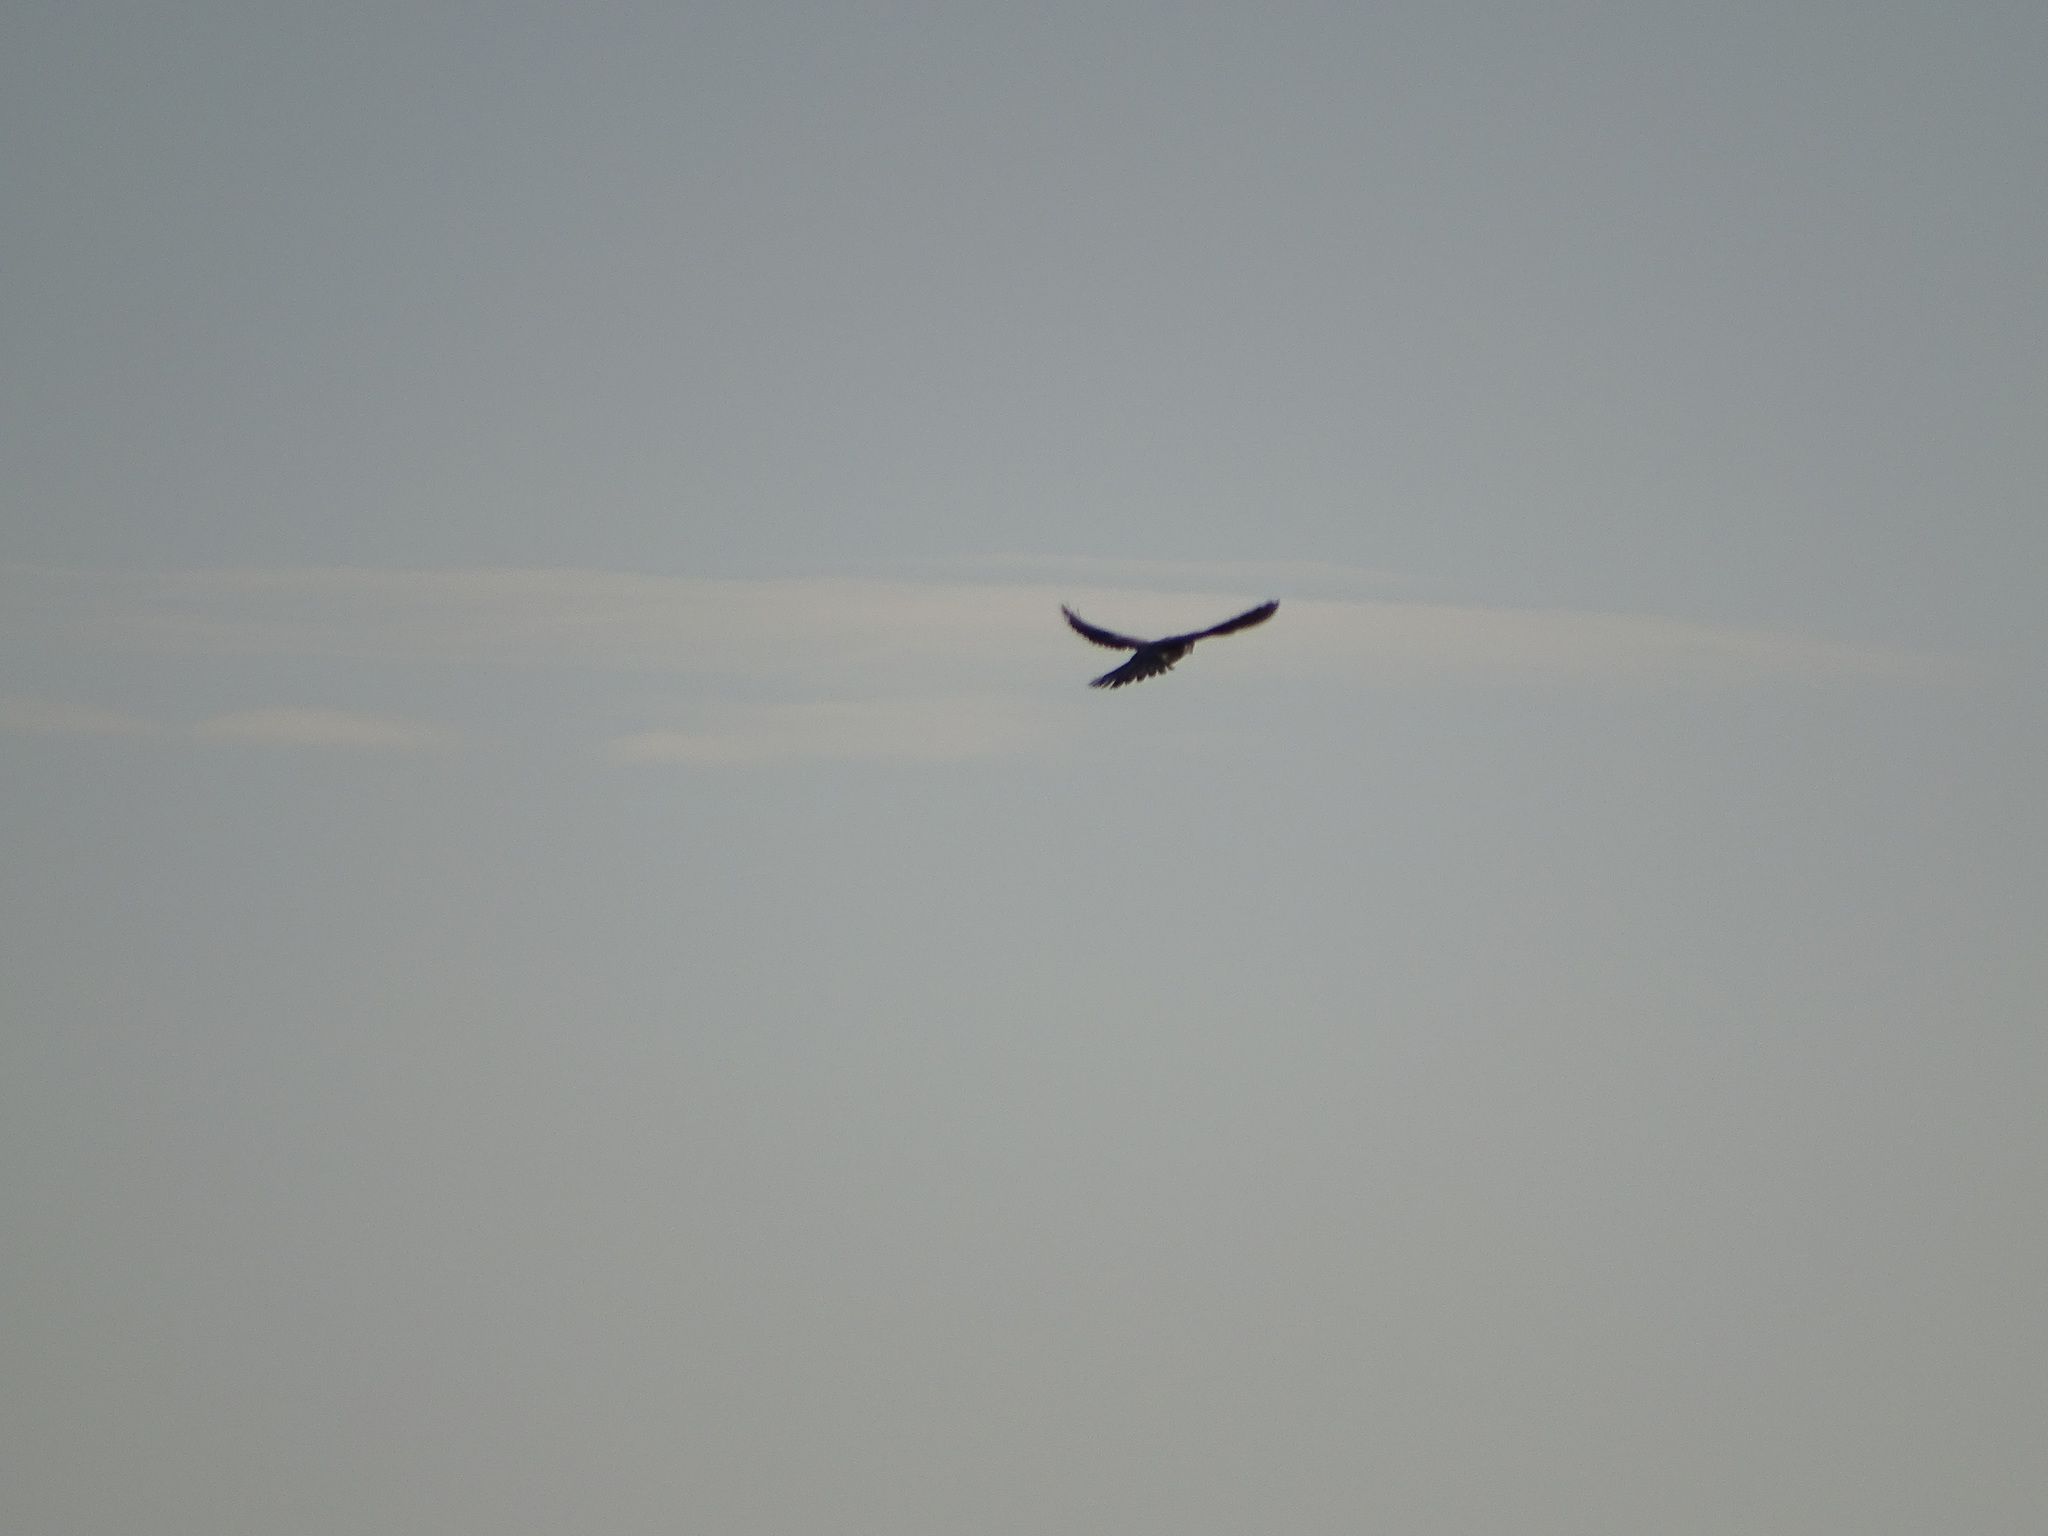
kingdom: Animalia
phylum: Chordata
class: Aves
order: Falconiformes
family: Falconidae
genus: Falco
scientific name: Falco tinnunculus
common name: Common kestrel
